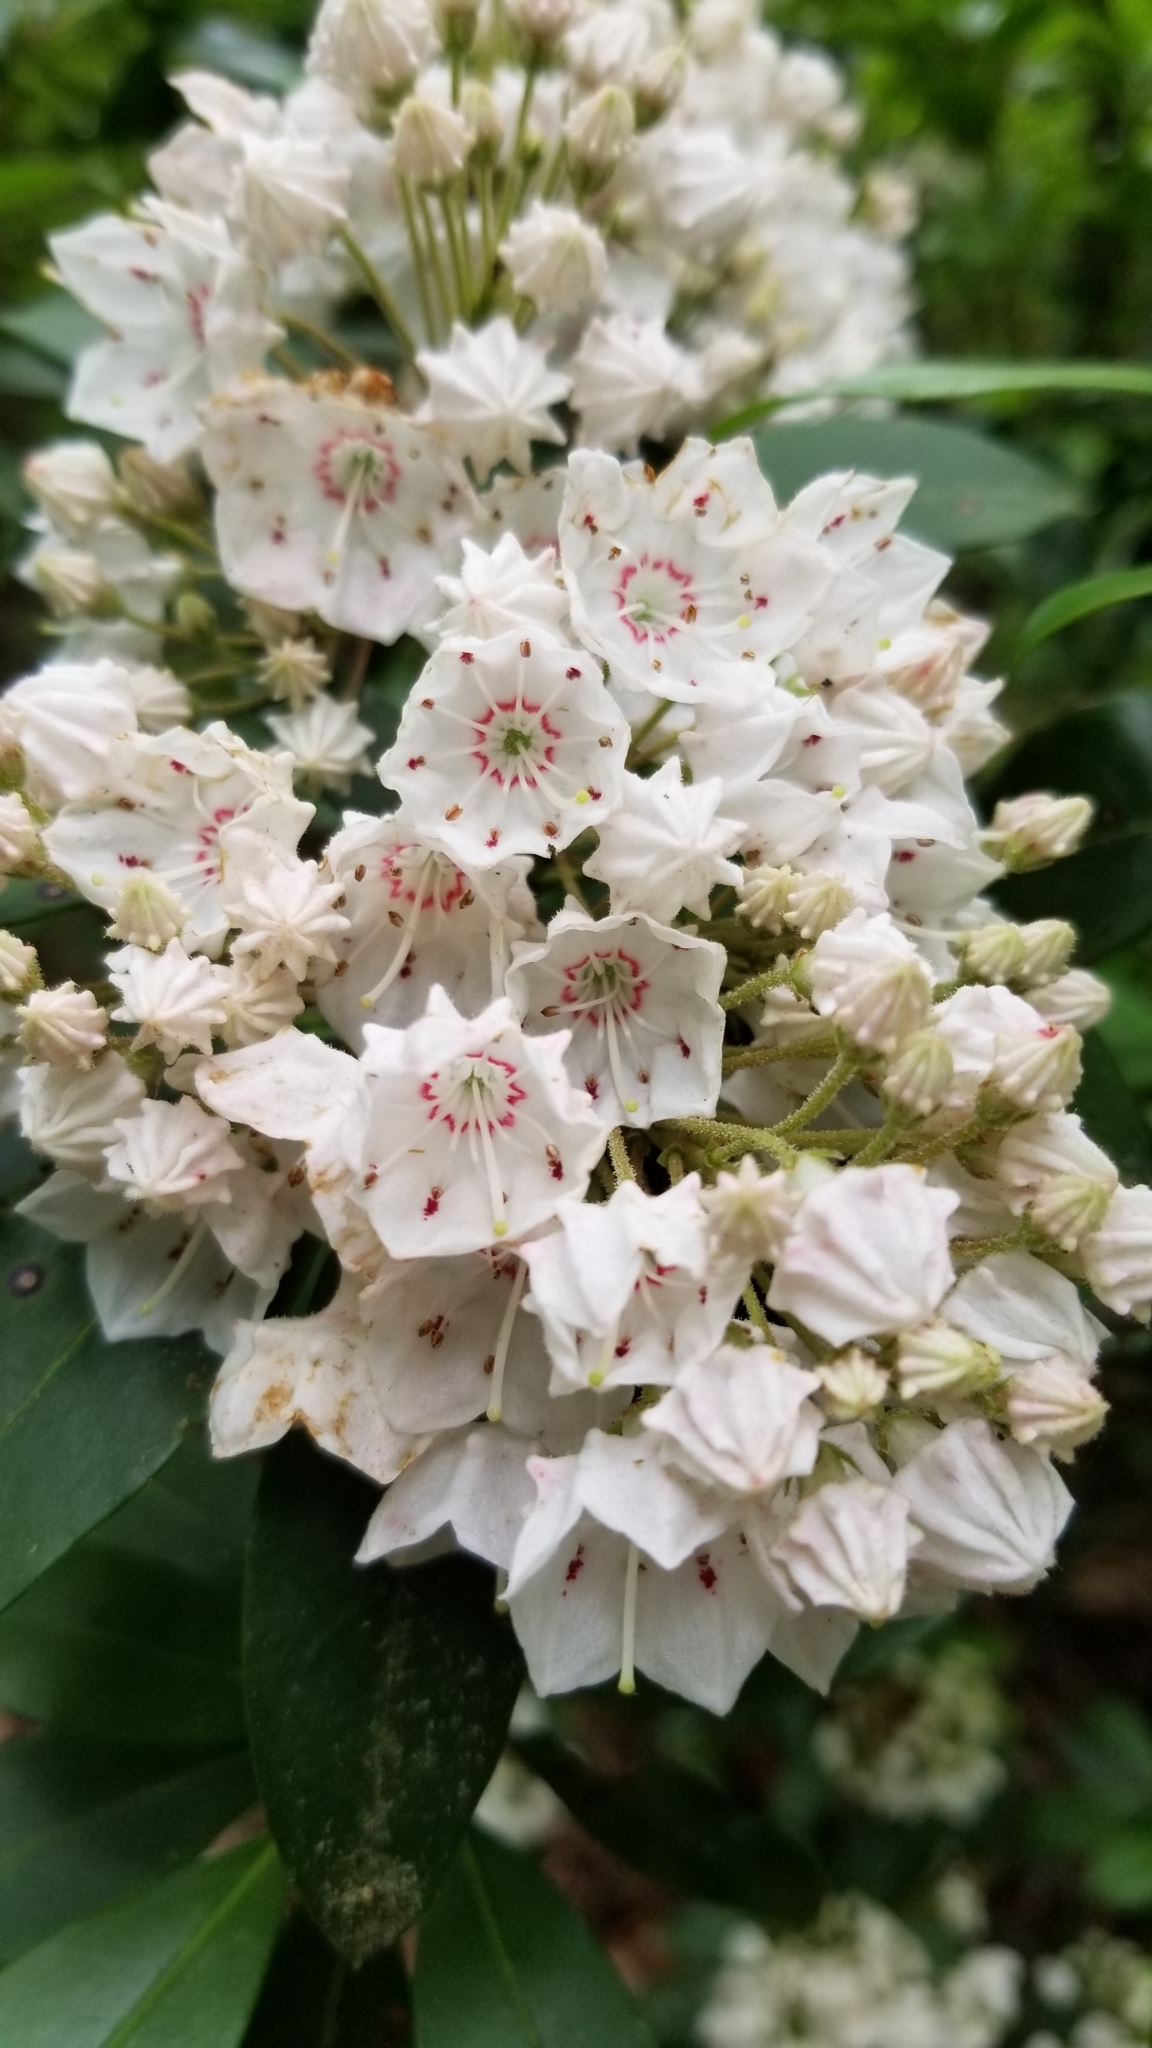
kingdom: Plantae
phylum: Tracheophyta
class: Magnoliopsida
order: Ericales
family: Ericaceae
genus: Kalmia
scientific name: Kalmia latifolia
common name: Mountain-laurel
